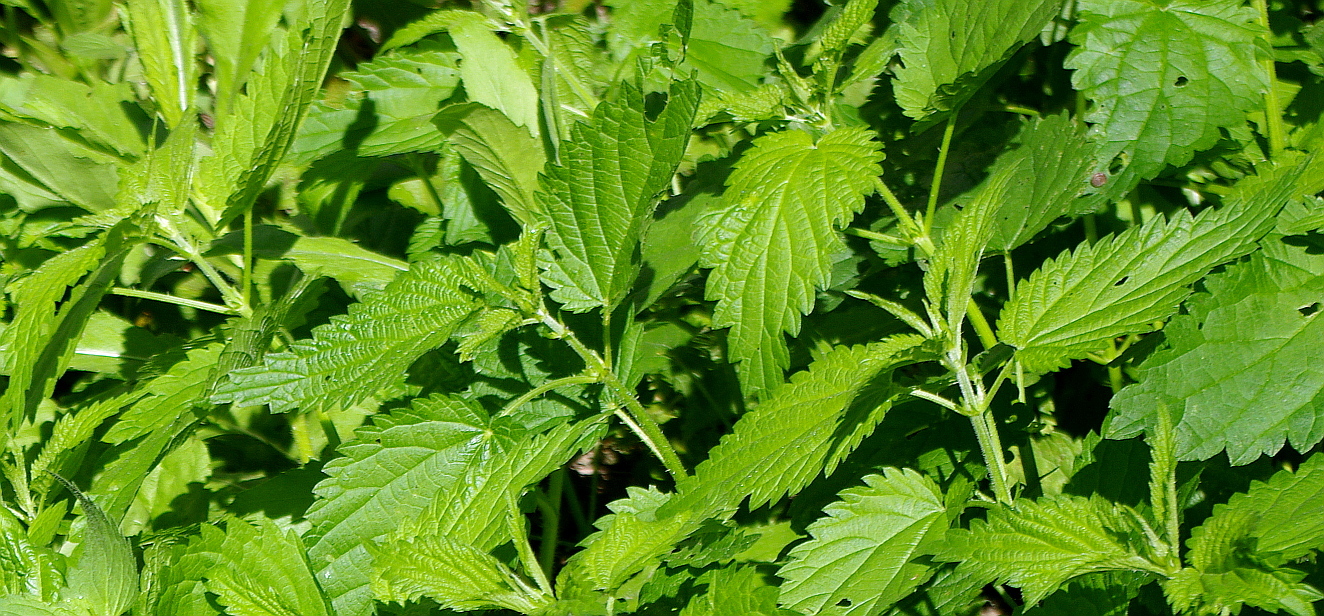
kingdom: Plantae
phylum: Tracheophyta
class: Magnoliopsida
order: Rosales
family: Urticaceae
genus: Urtica
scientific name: Urtica dioica
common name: Common nettle
